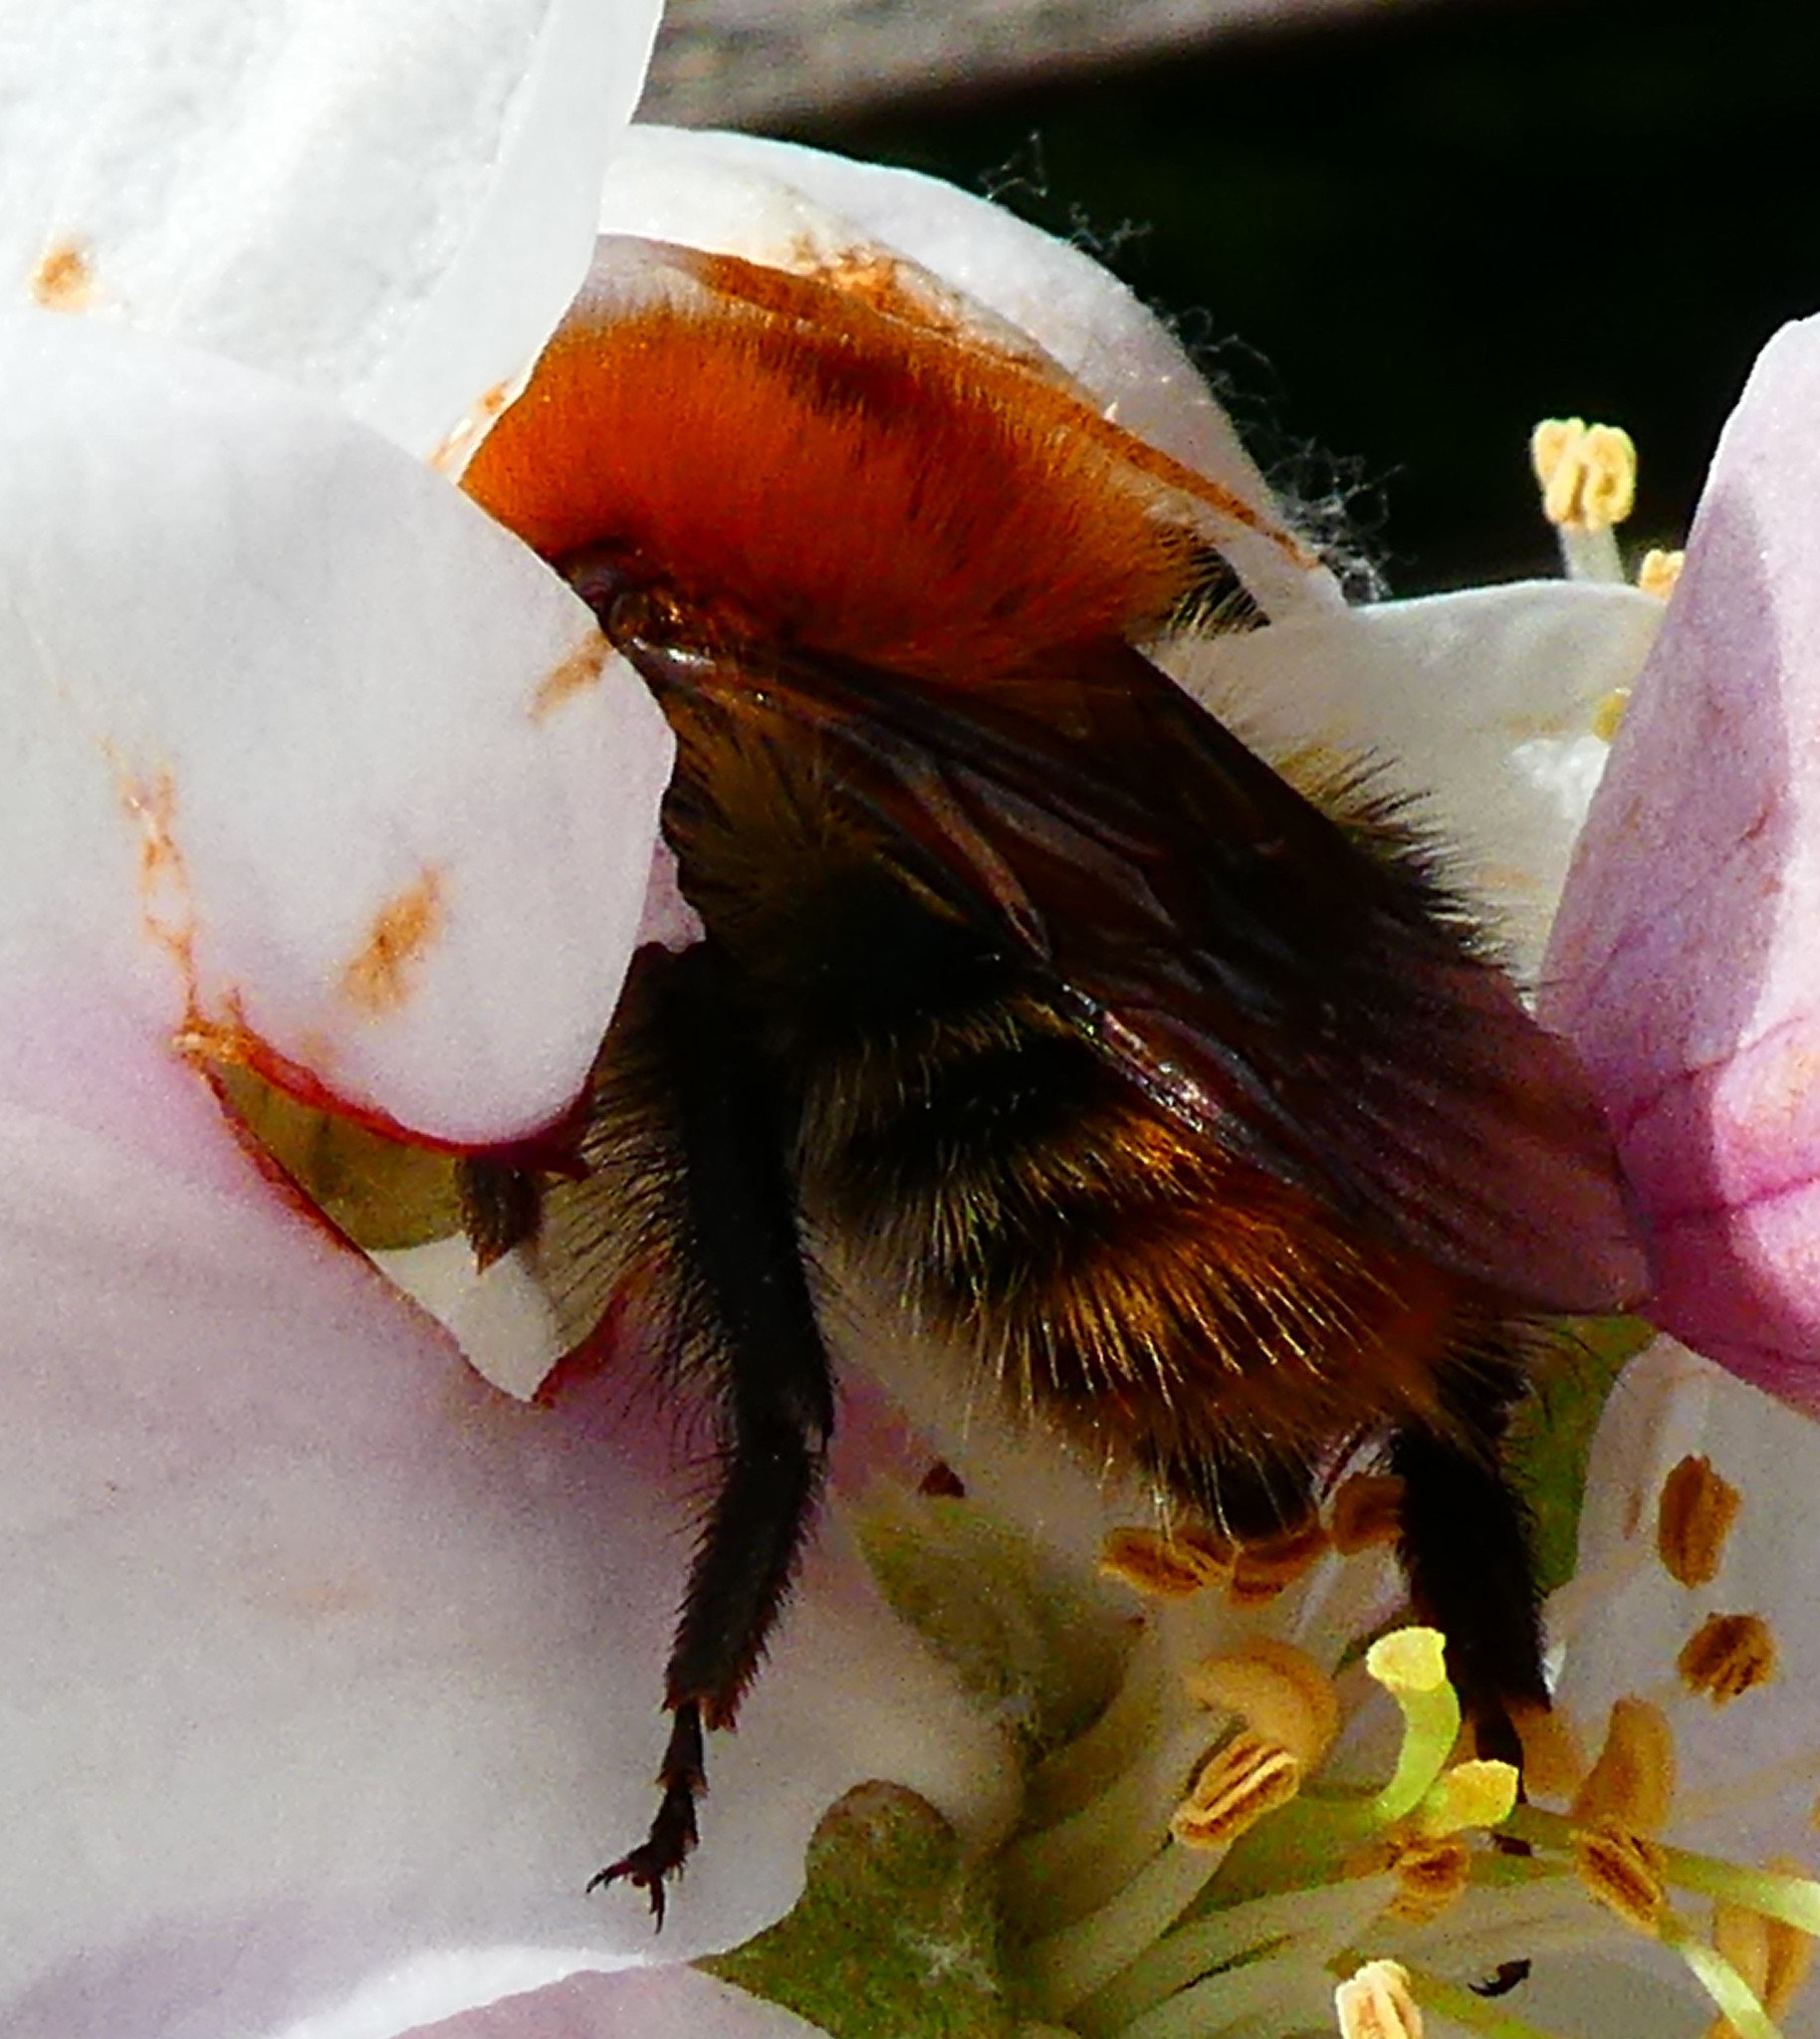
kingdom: Animalia
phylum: Arthropoda
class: Insecta
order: Hymenoptera
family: Apidae
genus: Bombus
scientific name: Bombus pascuorum
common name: Common carder bee
